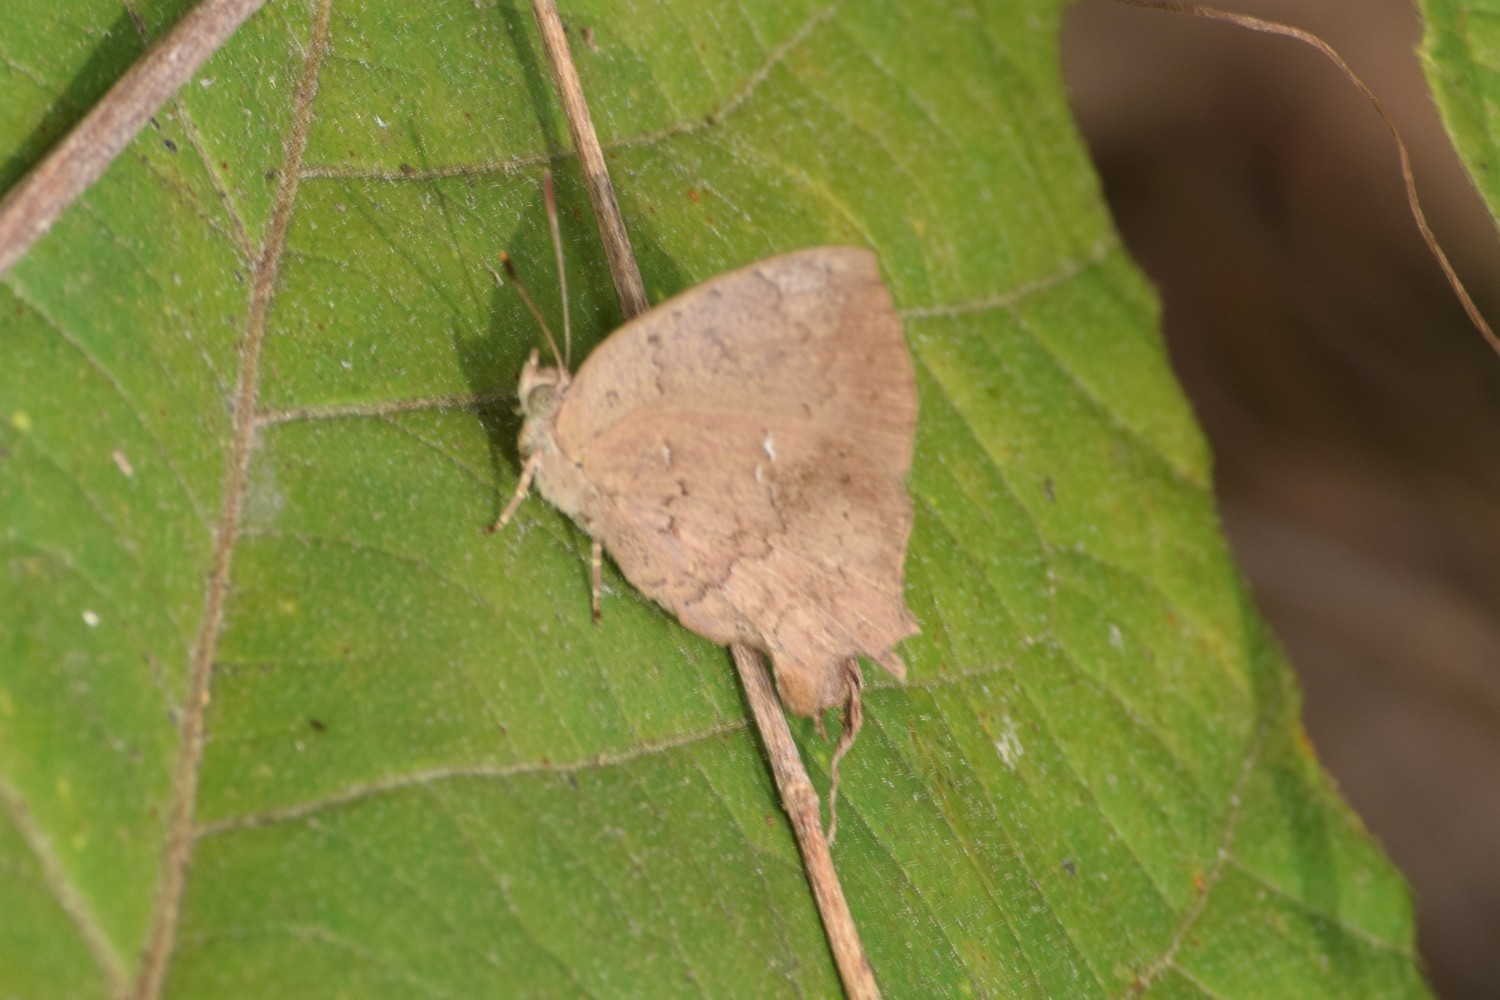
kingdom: Animalia
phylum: Arthropoda
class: Insecta
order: Lepidoptera
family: Lycaenidae
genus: Surendra
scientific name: Surendra quercetorum
